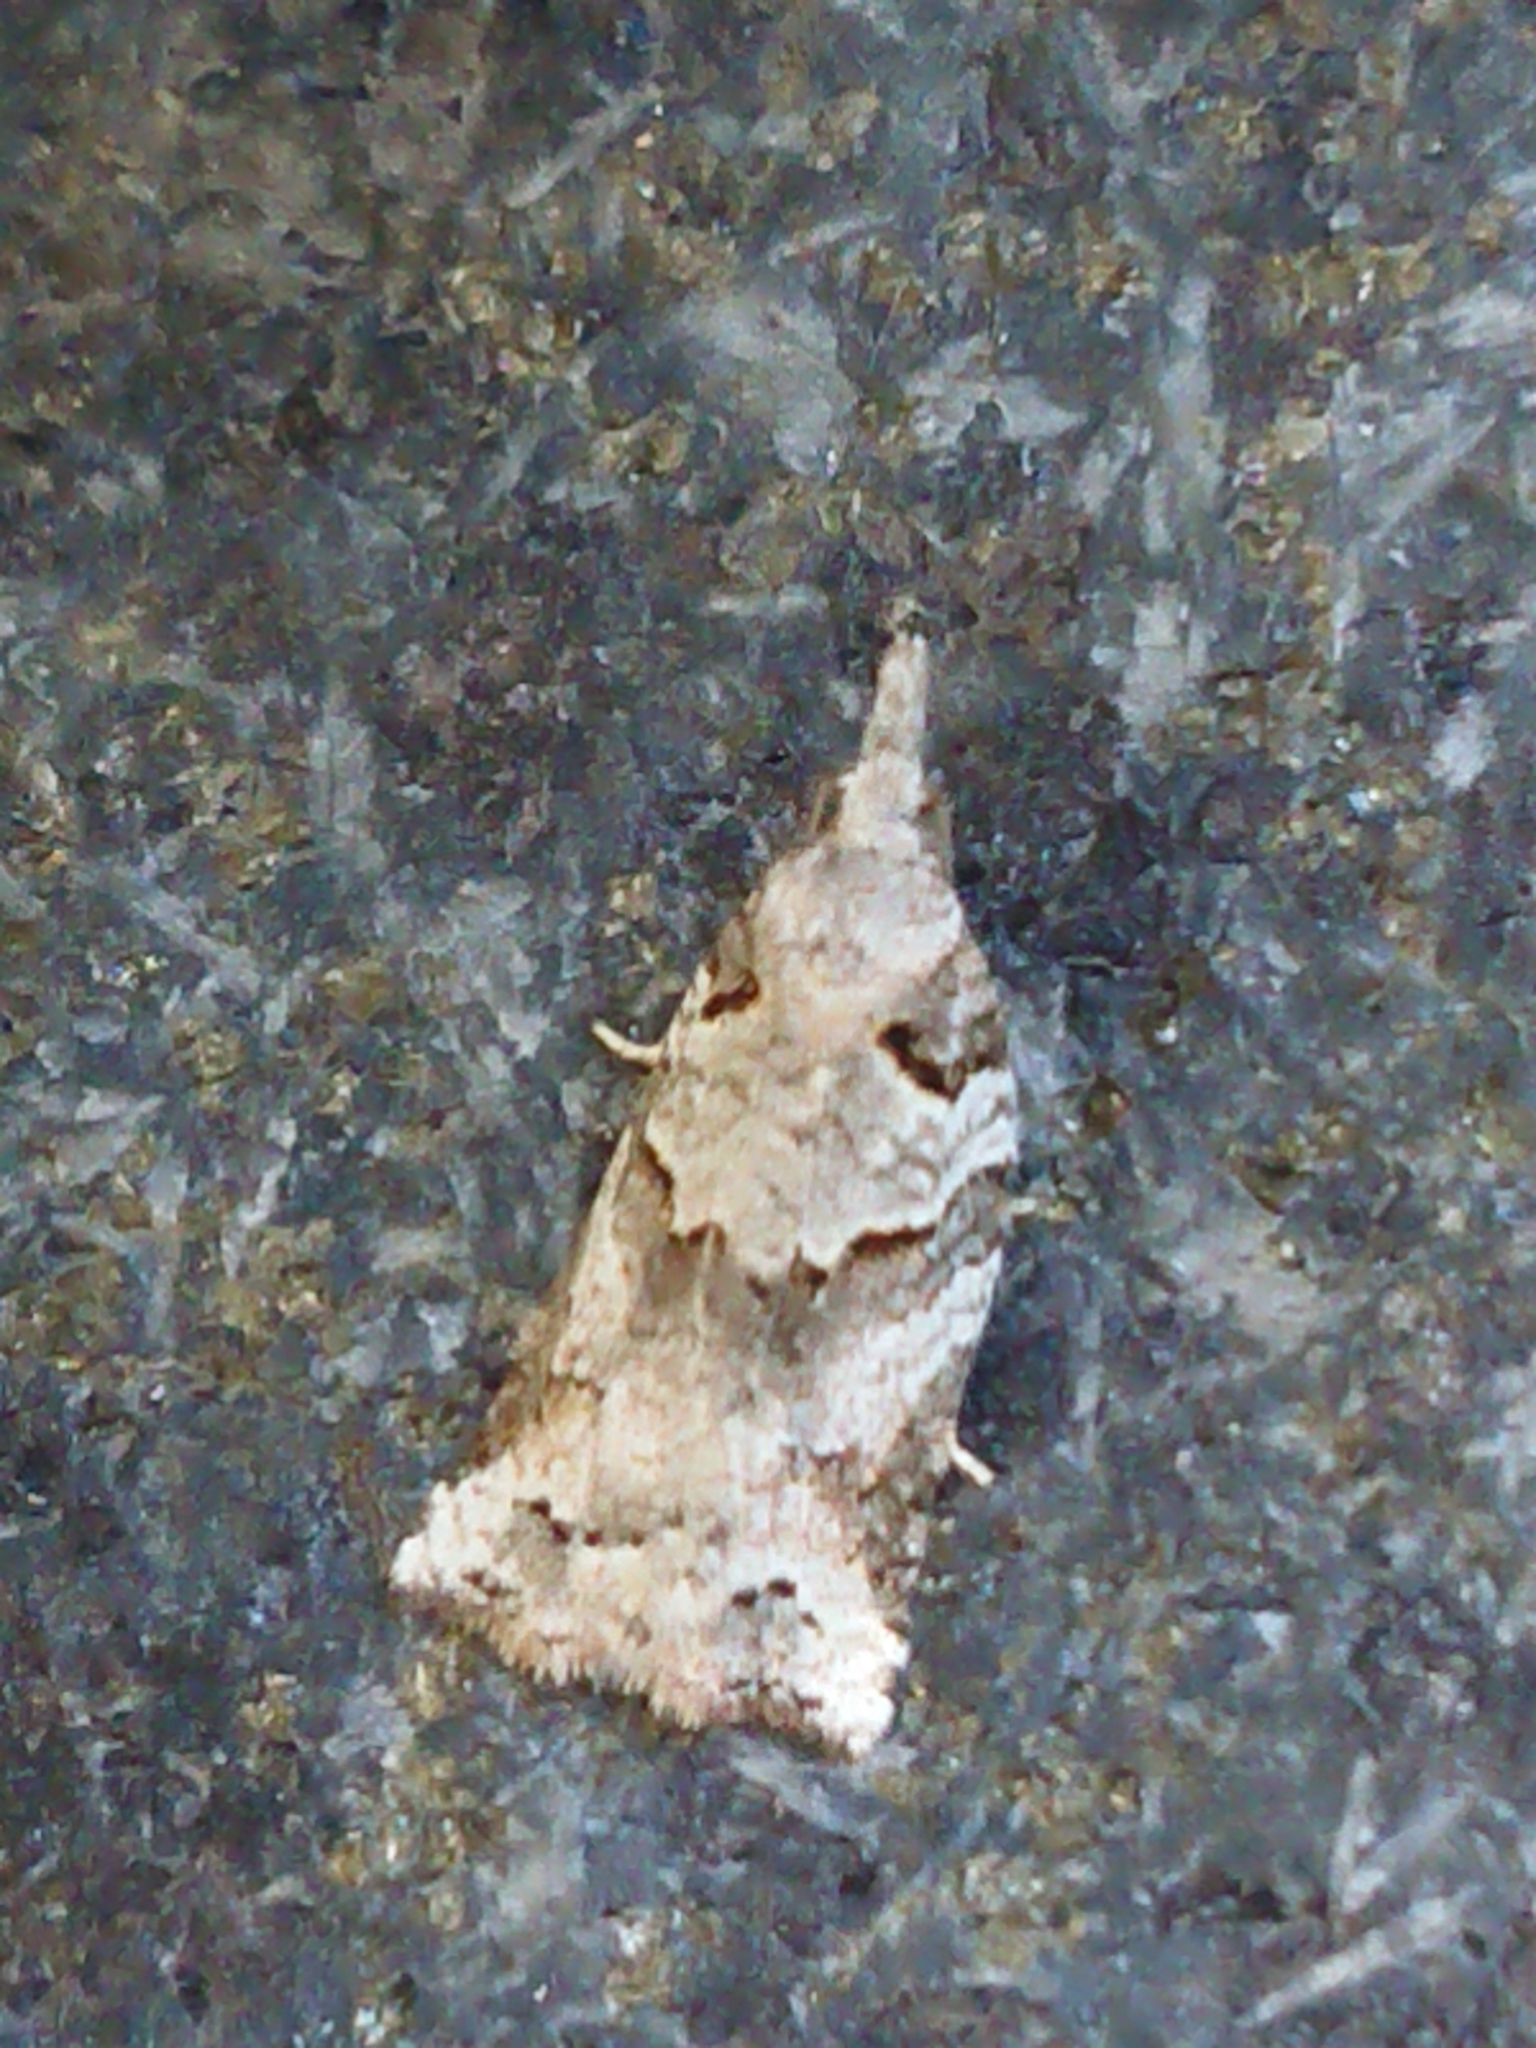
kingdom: Animalia
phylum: Arthropoda
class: Insecta
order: Lepidoptera
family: Tortricidae
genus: Harmologa
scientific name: Harmologa amplexana
